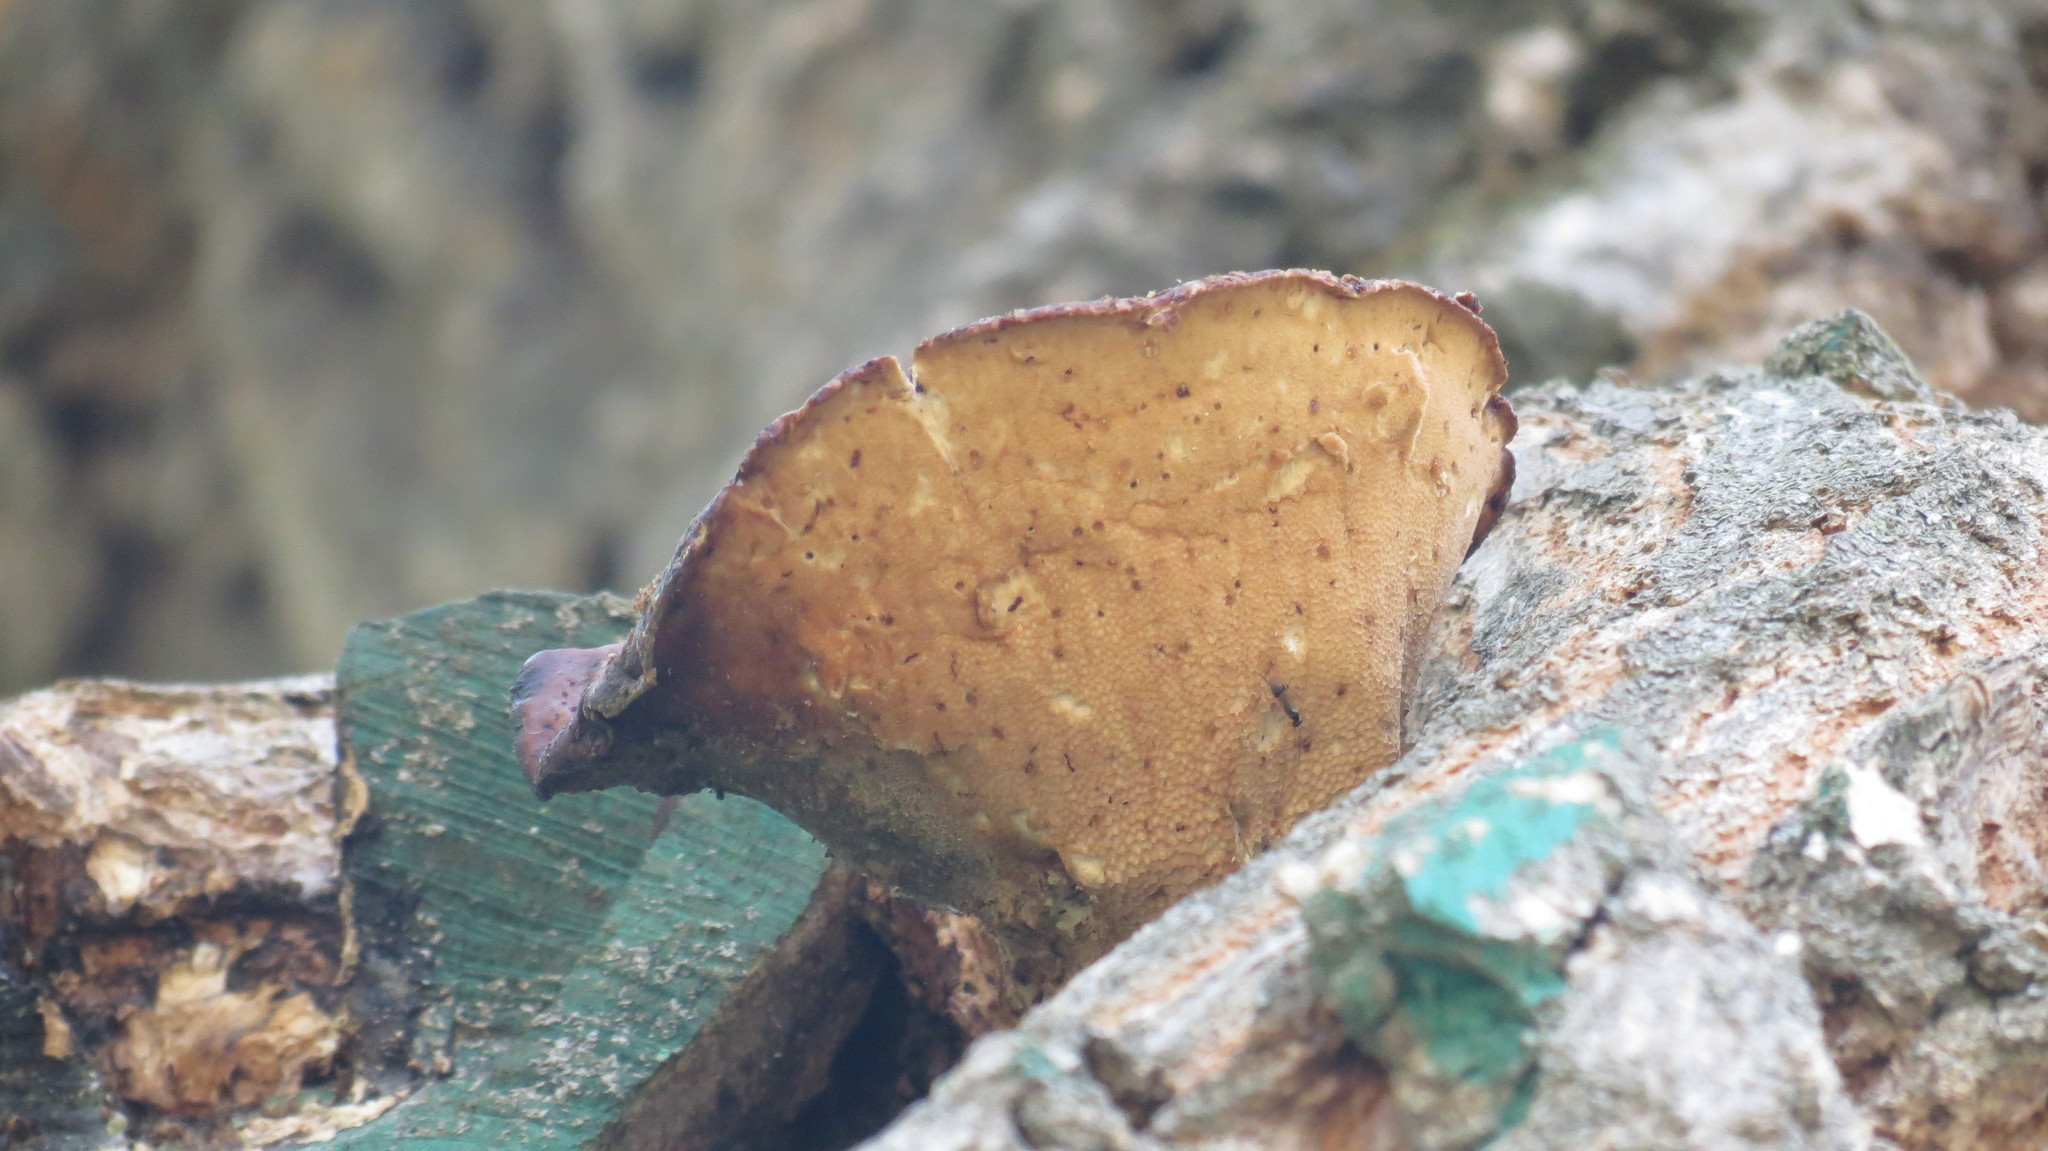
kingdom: Fungi
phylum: Basidiomycota
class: Agaricomycetes
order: Polyporales
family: Polyporaceae
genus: Cerioporus
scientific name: Cerioporus squamosus
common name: Dryad's saddle
